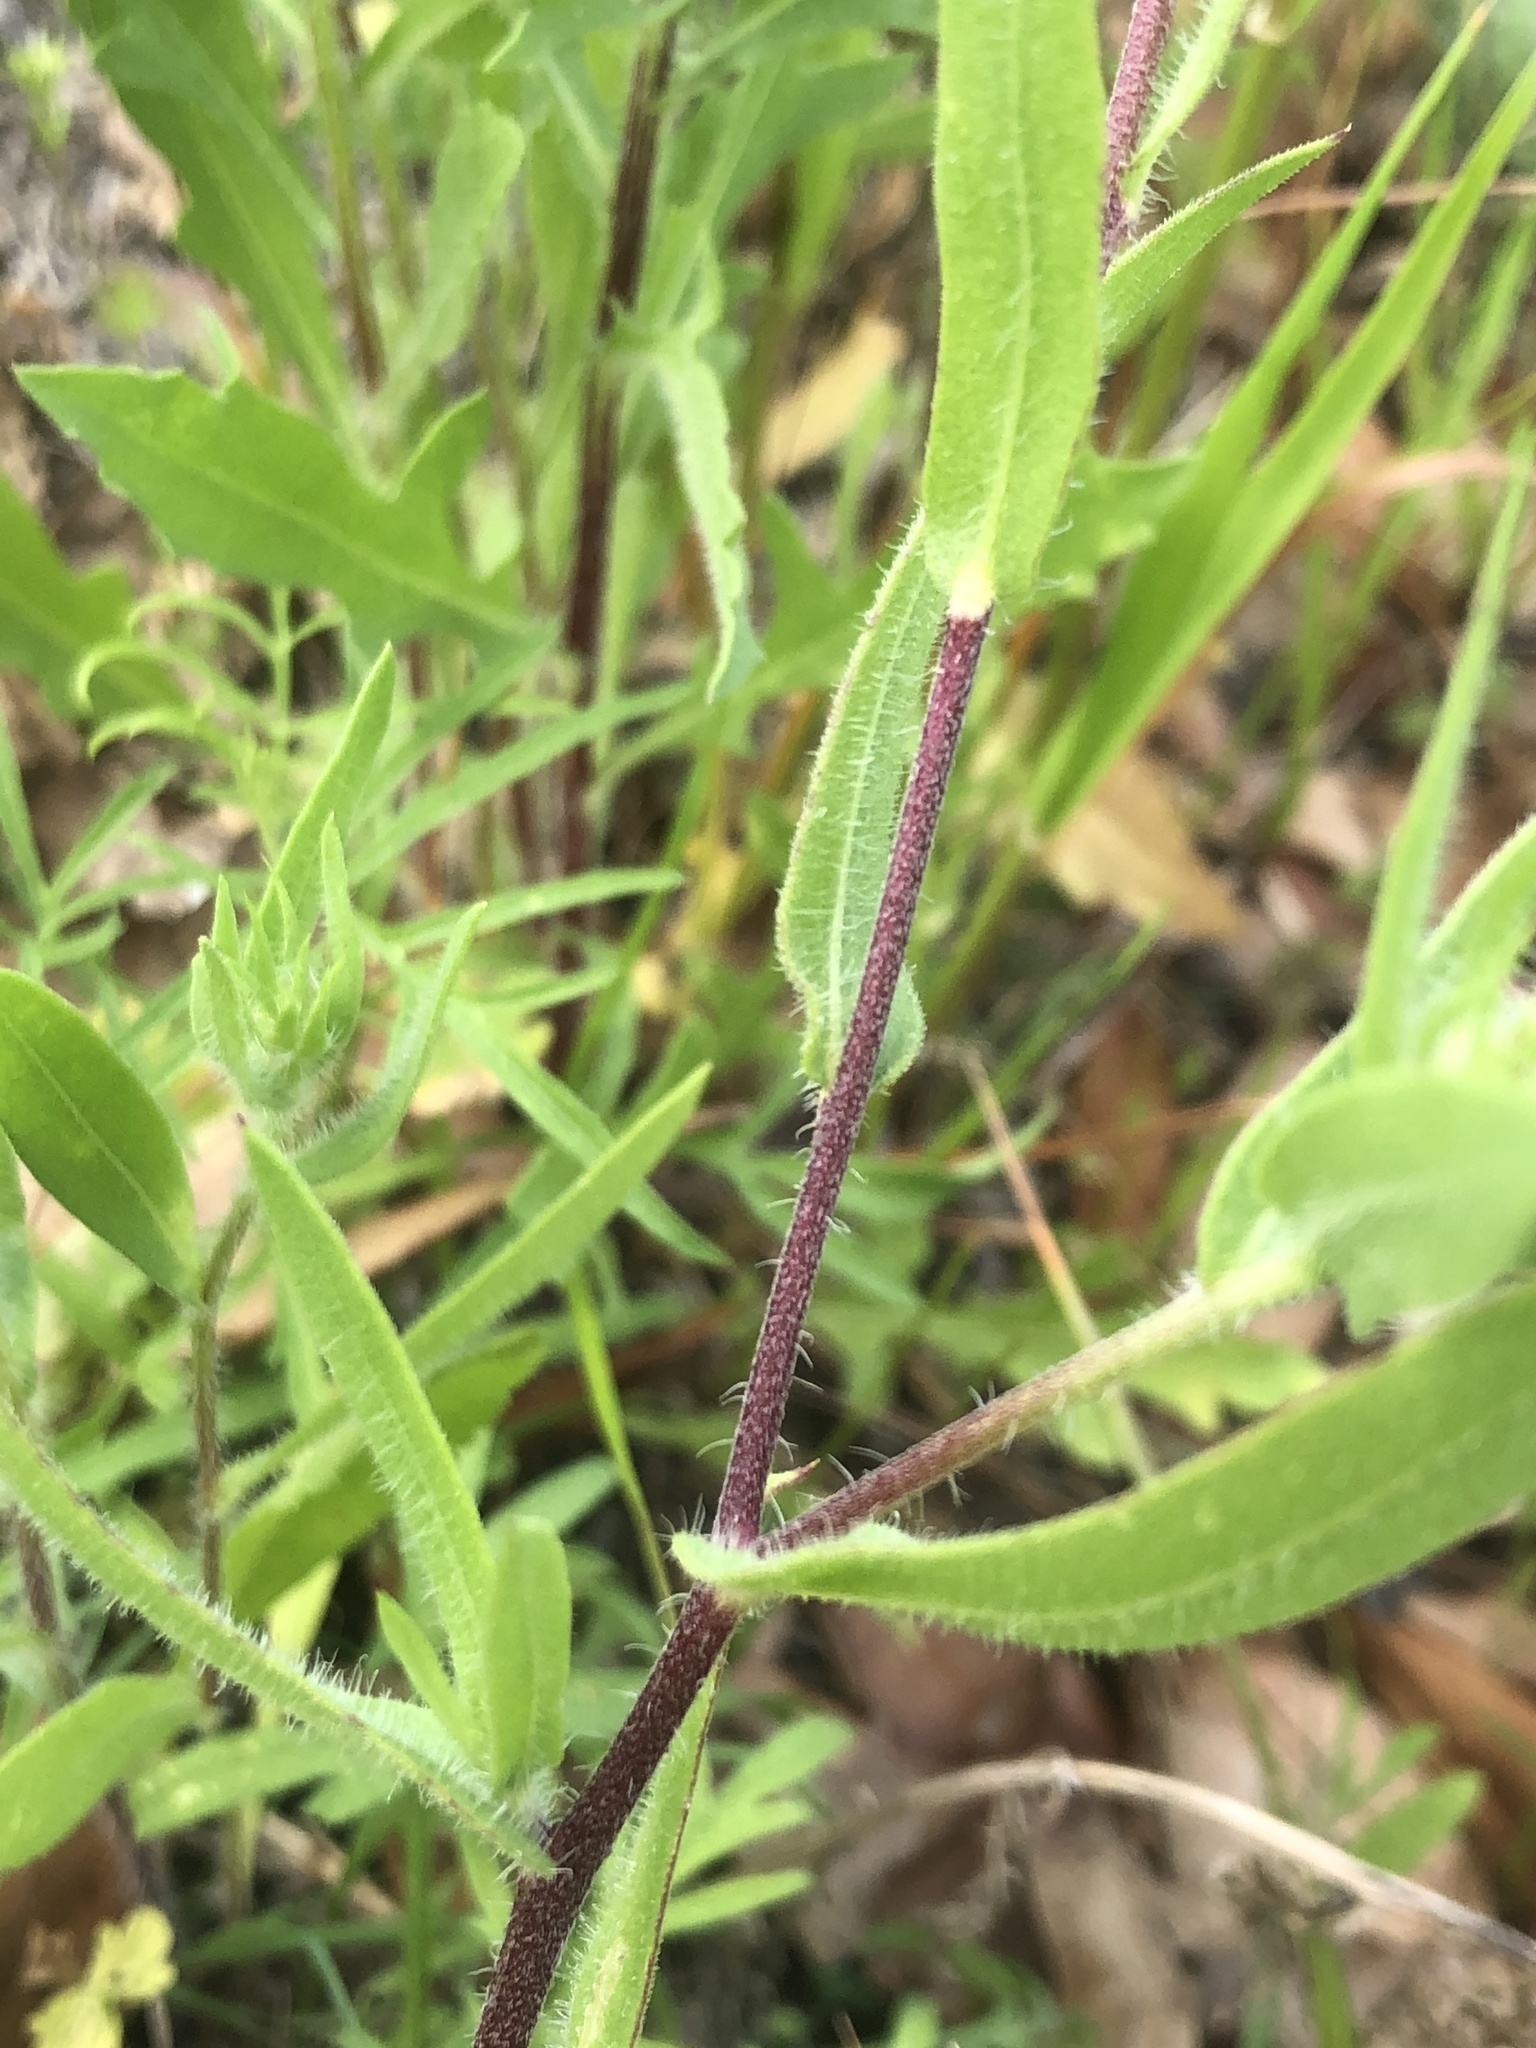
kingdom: Plantae
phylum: Tracheophyta
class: Magnoliopsida
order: Asterales
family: Asteraceae
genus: Gaillardia
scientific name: Gaillardia pulchella
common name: Firewheel
